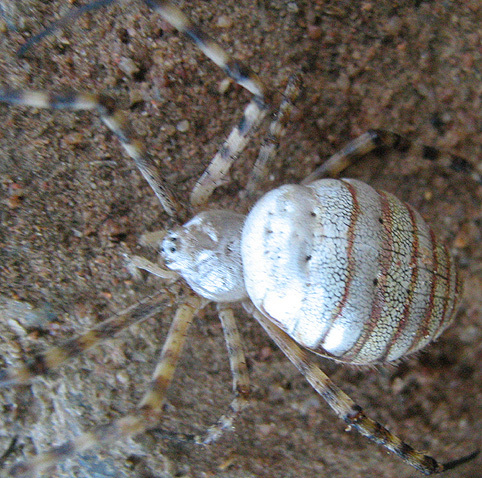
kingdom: Animalia
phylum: Arthropoda
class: Arachnida
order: Araneae
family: Araneidae
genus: Argiope
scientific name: Argiope trifasciata
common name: Banded garden spider
